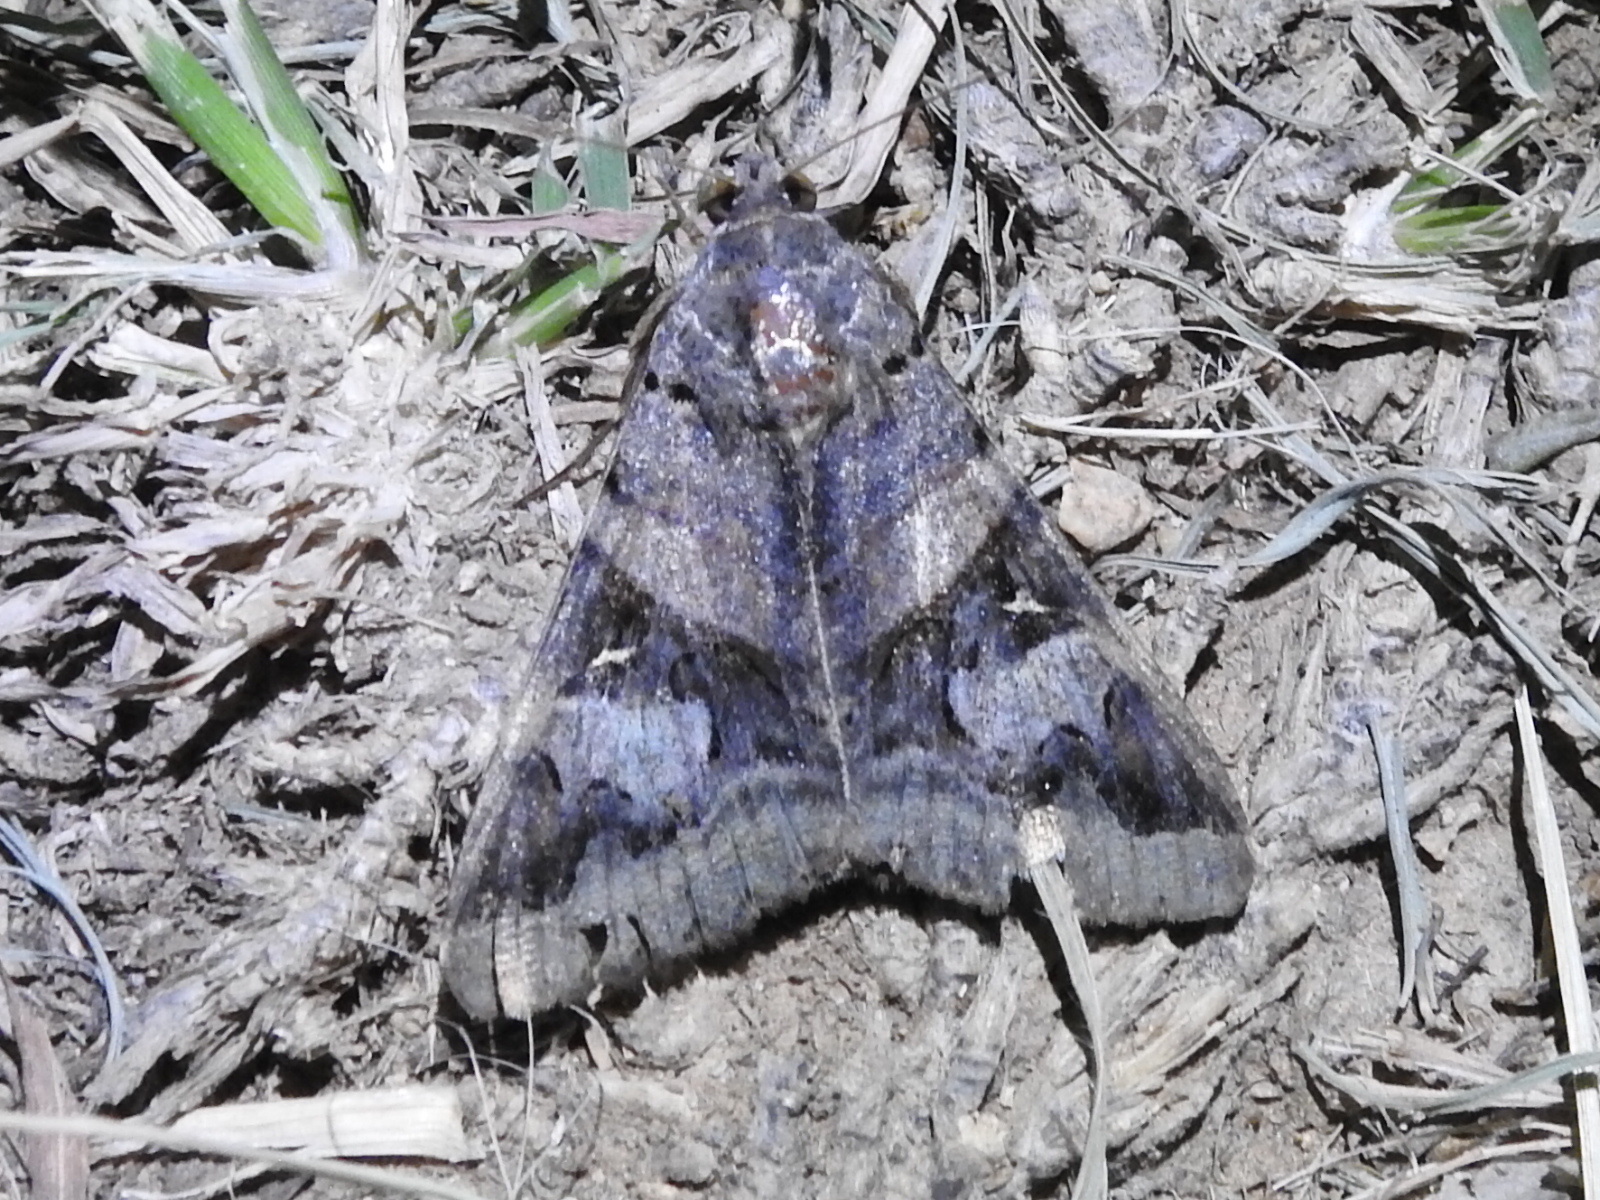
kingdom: Animalia
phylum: Arthropoda
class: Insecta
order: Lepidoptera
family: Erebidae
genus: Melipotis
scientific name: Melipotis indomita
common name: Moth
